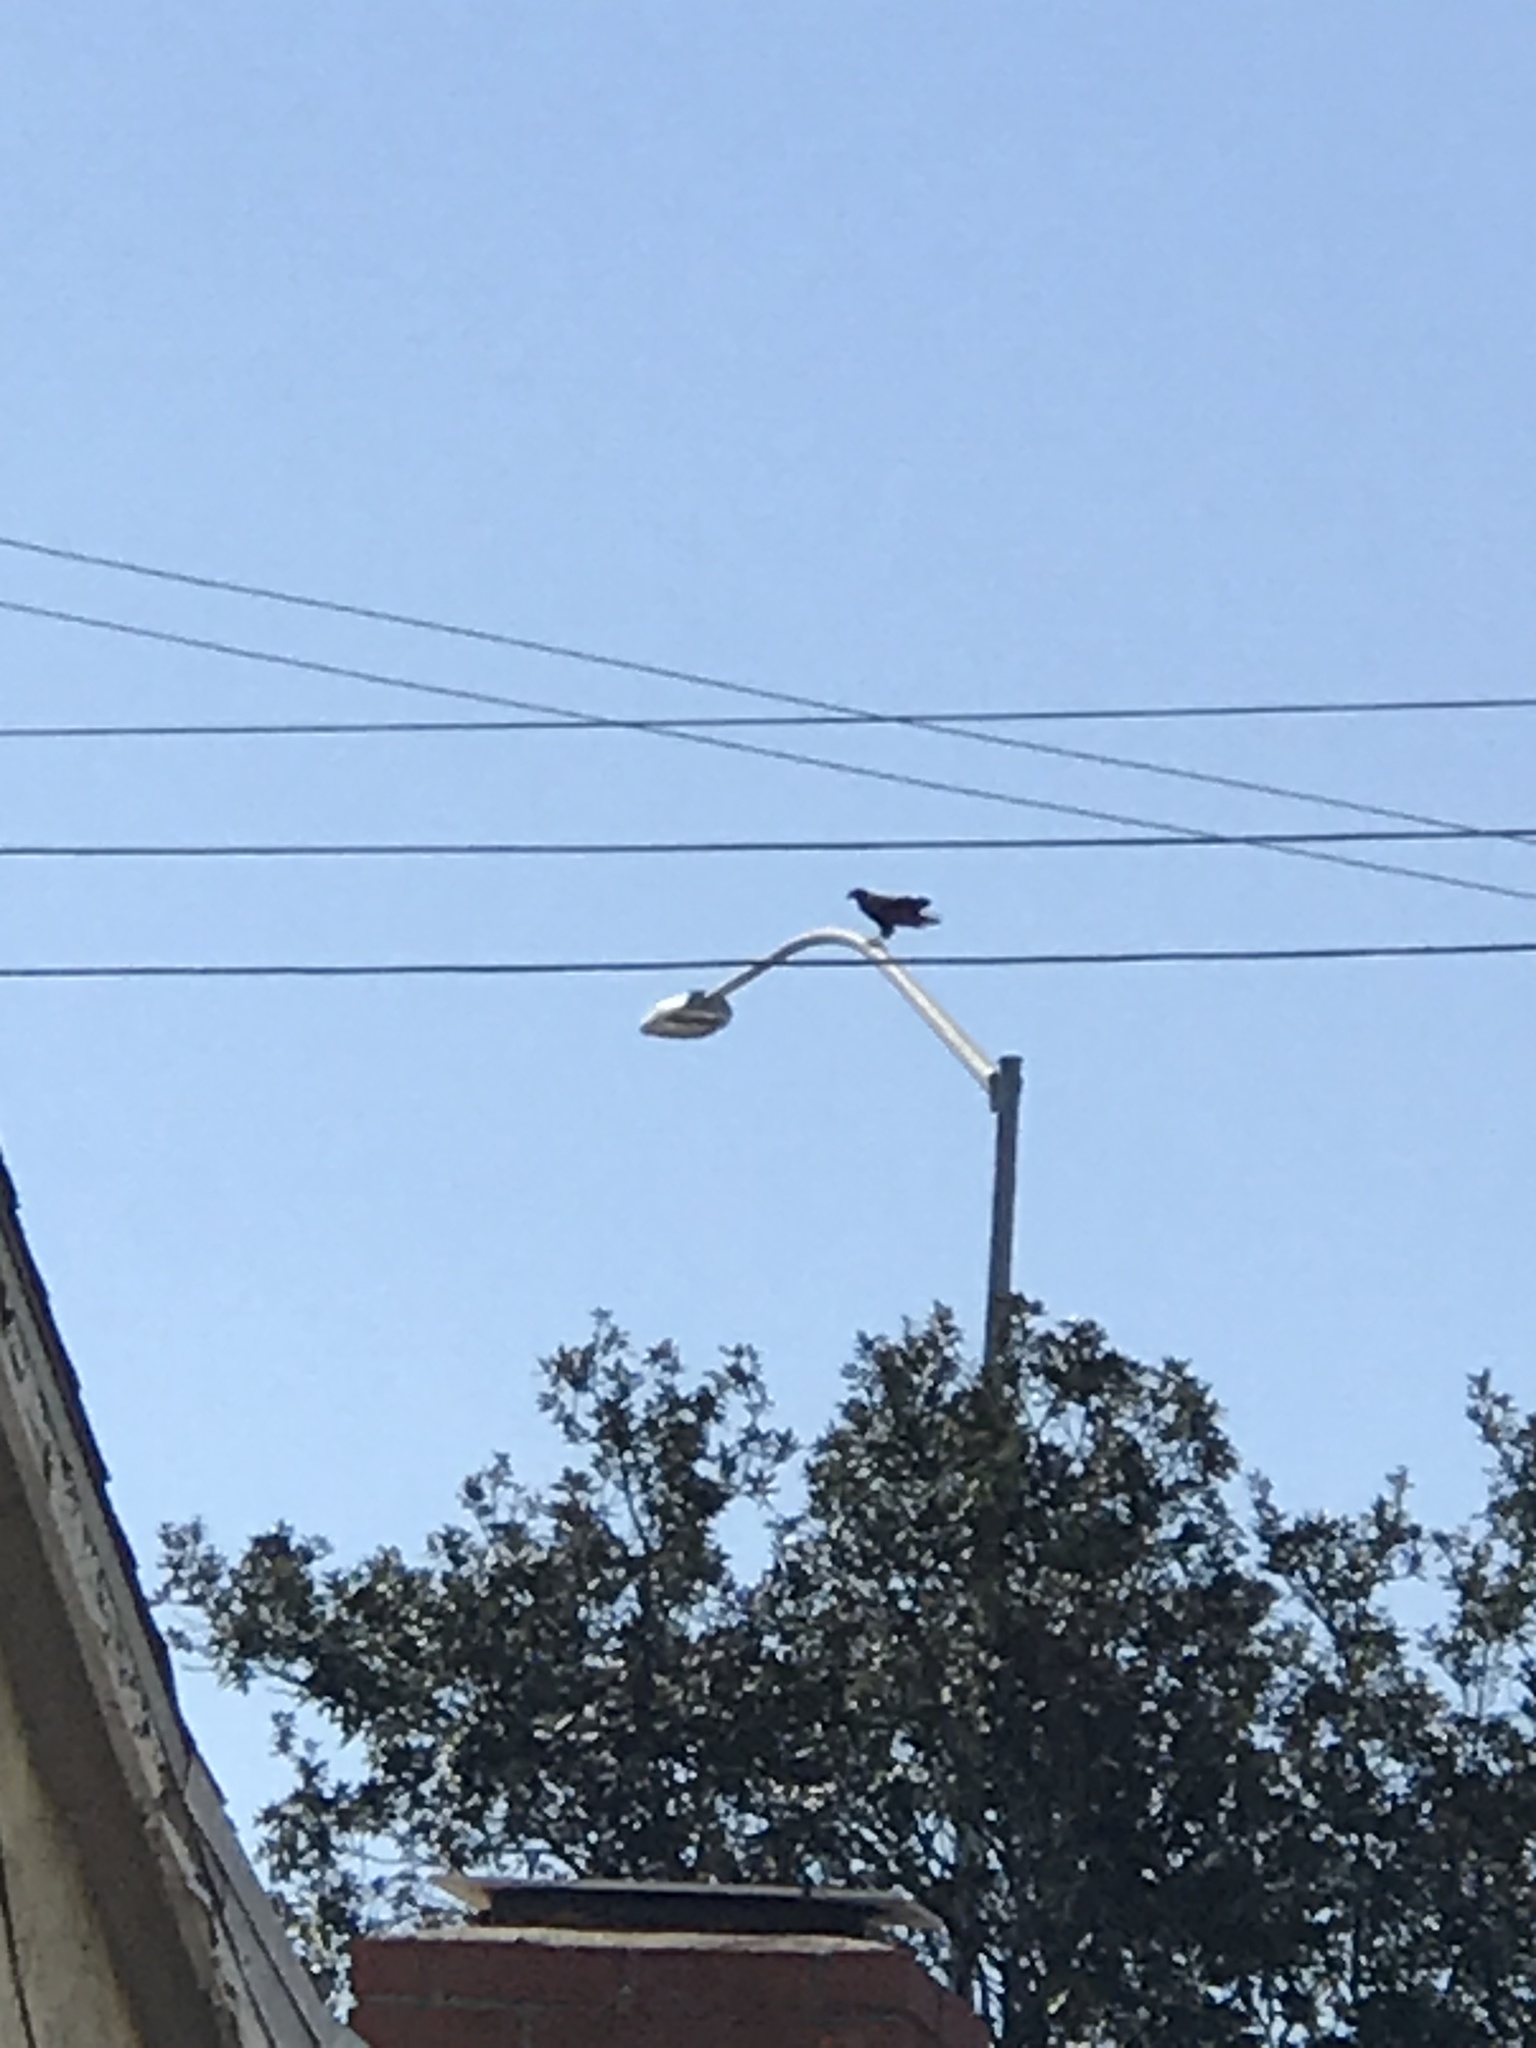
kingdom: Animalia
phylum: Chordata
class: Aves
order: Accipitriformes
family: Accipitridae
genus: Buteo
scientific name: Buteo jamaicensis
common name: Red-tailed hawk
